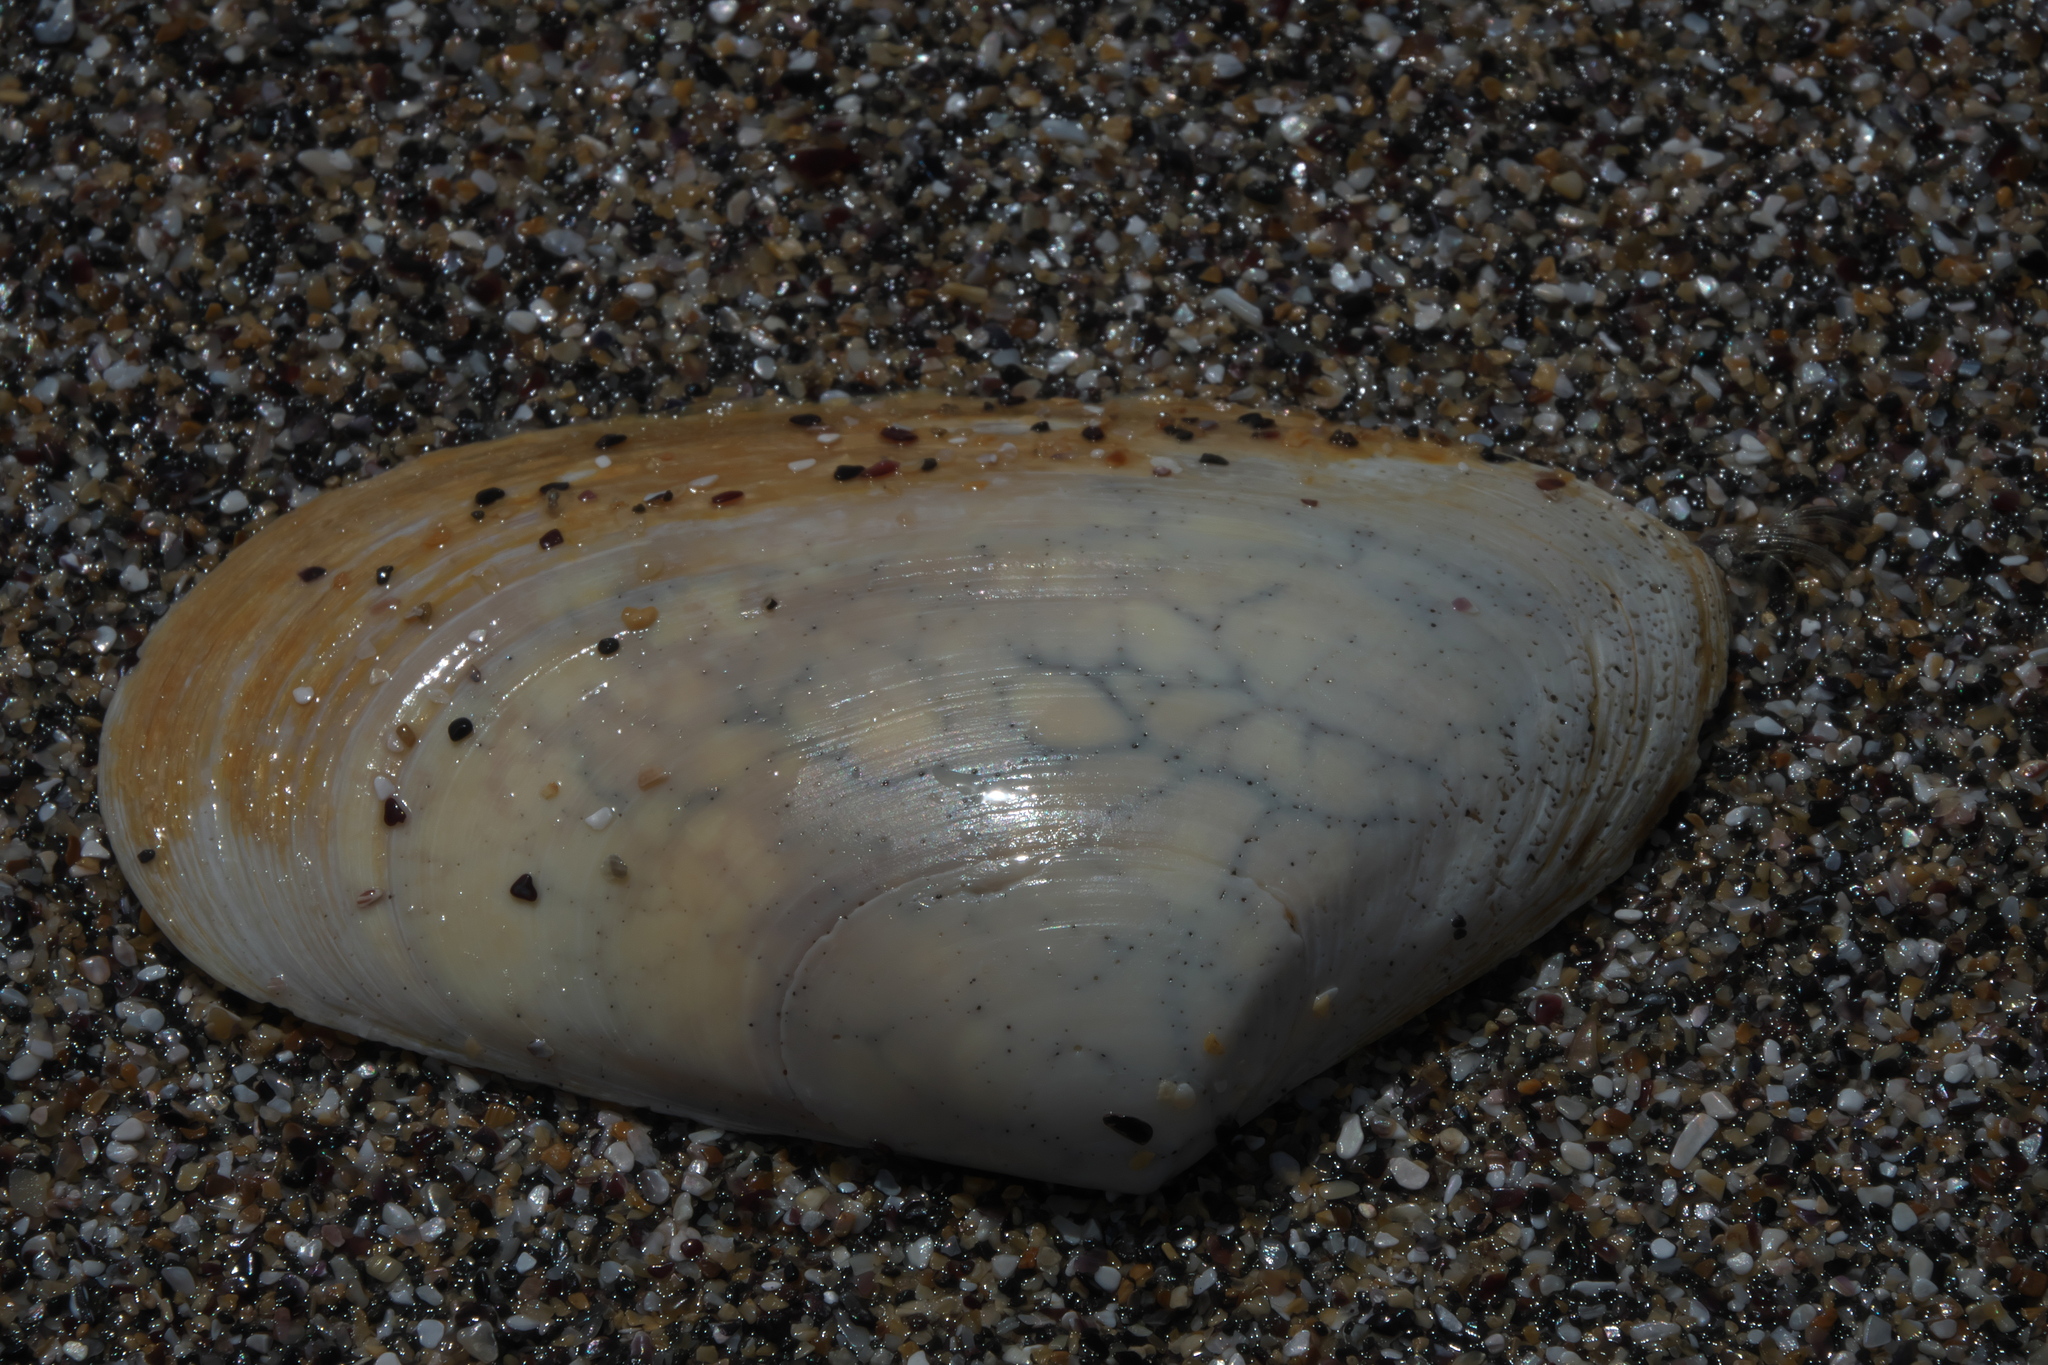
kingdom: Animalia
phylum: Mollusca
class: Bivalvia
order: Venerida
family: Mesodesmatidae
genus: Paphies
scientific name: Paphies donacina
